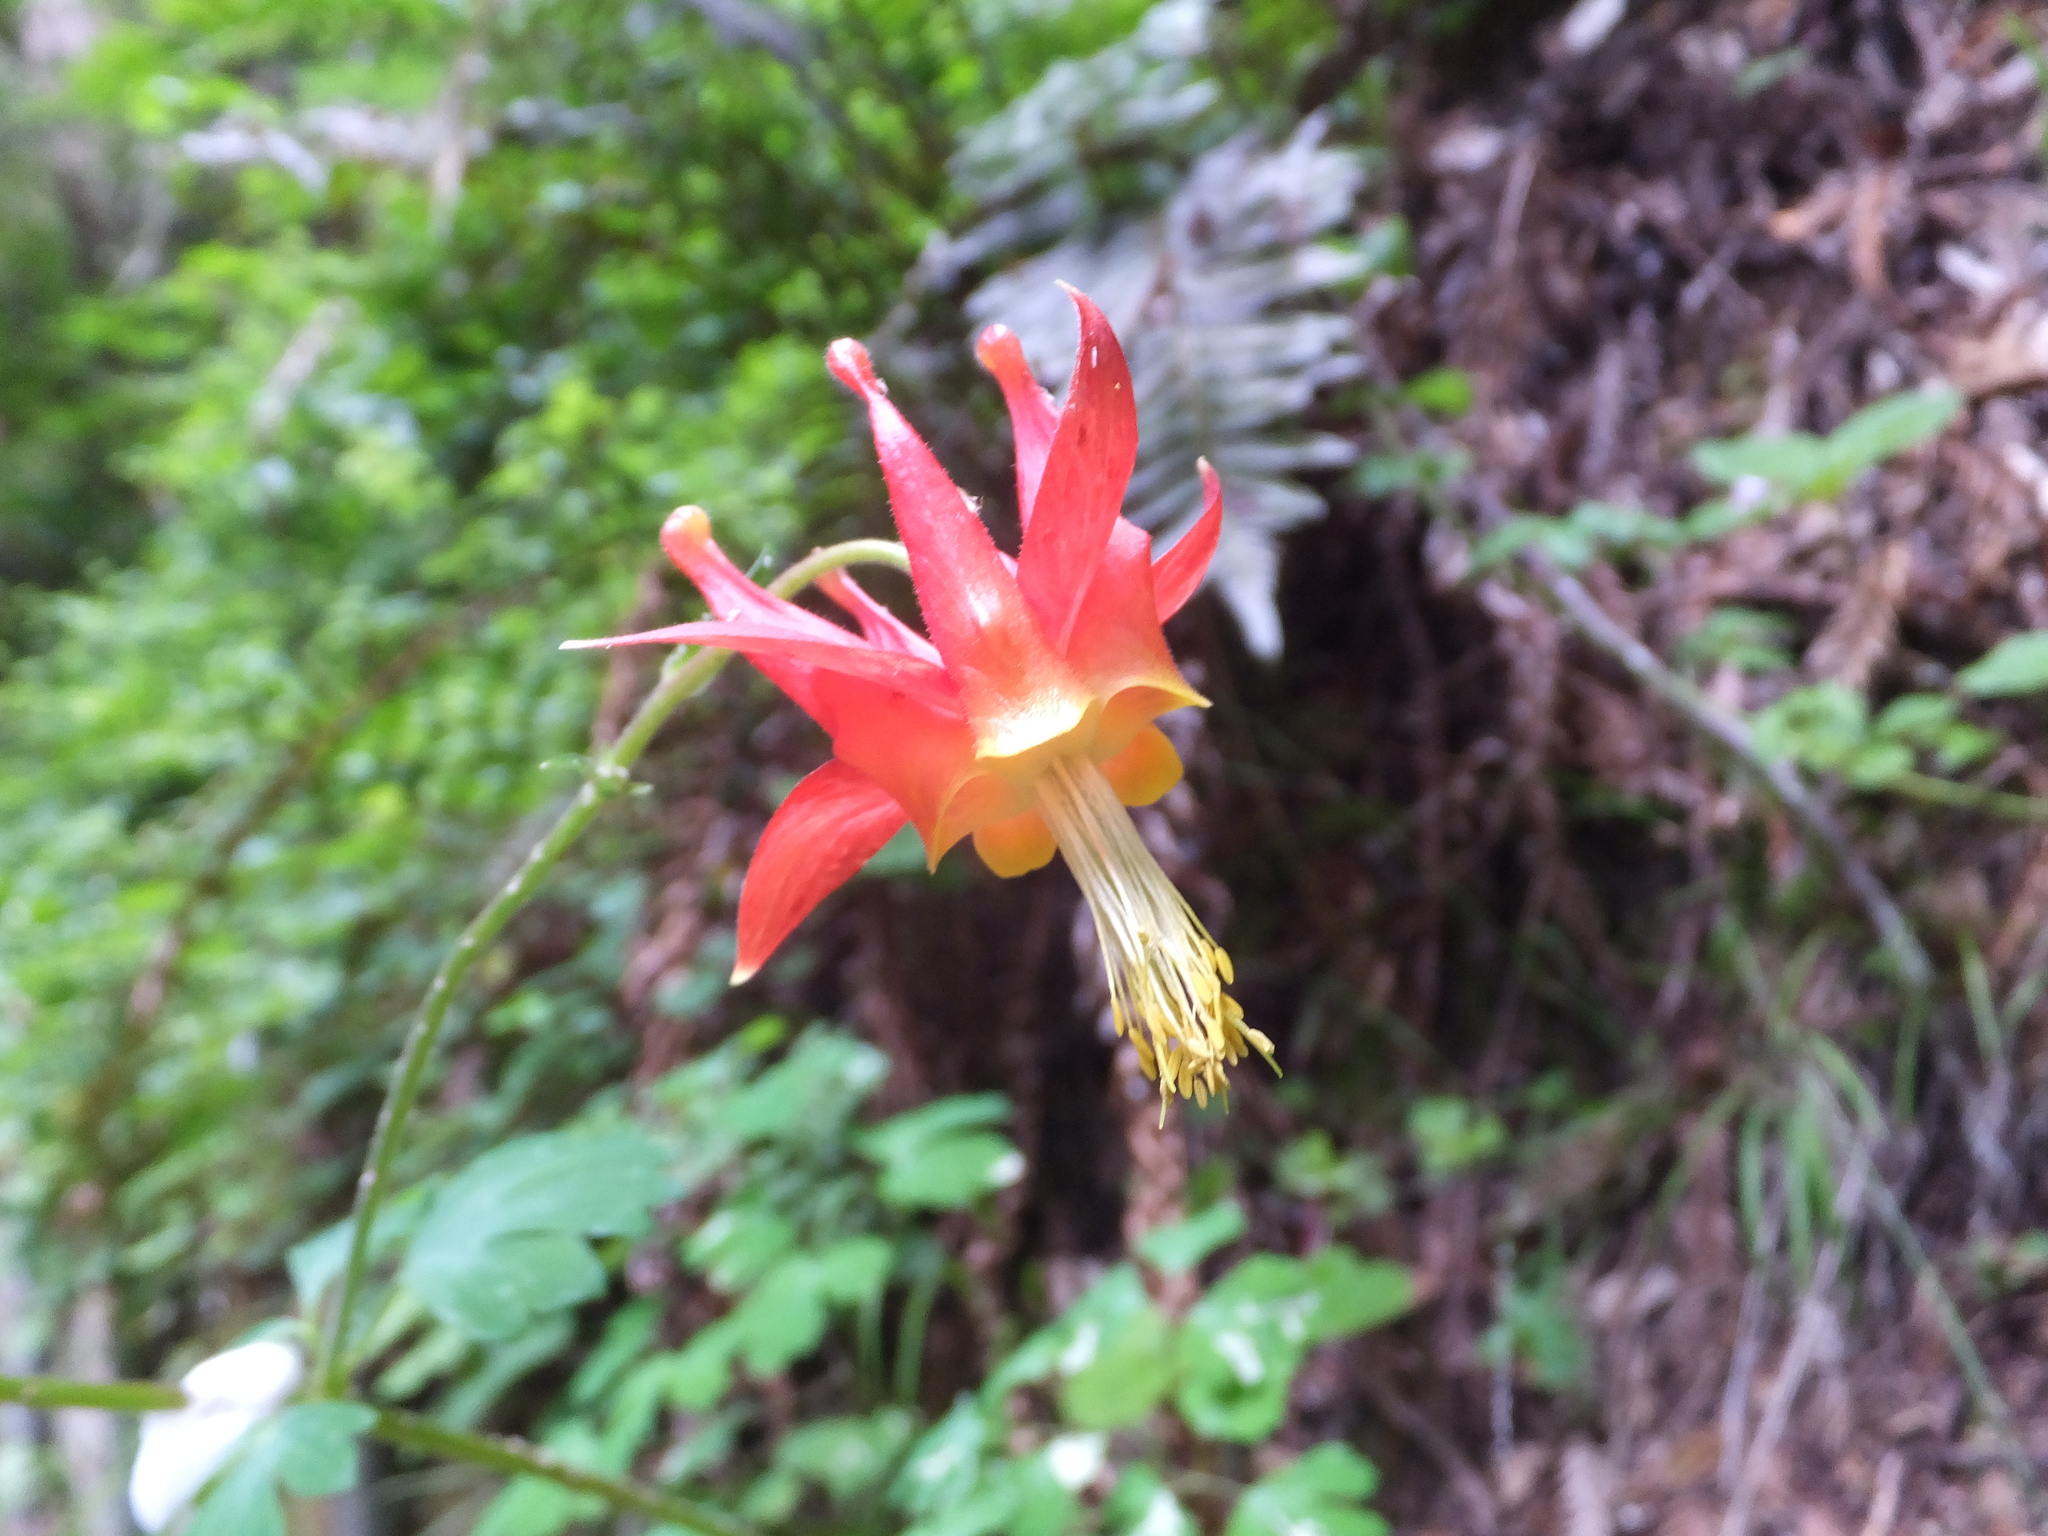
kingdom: Plantae
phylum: Tracheophyta
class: Magnoliopsida
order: Ranunculales
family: Ranunculaceae
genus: Aquilegia
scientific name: Aquilegia formosa
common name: Sitka columbine
